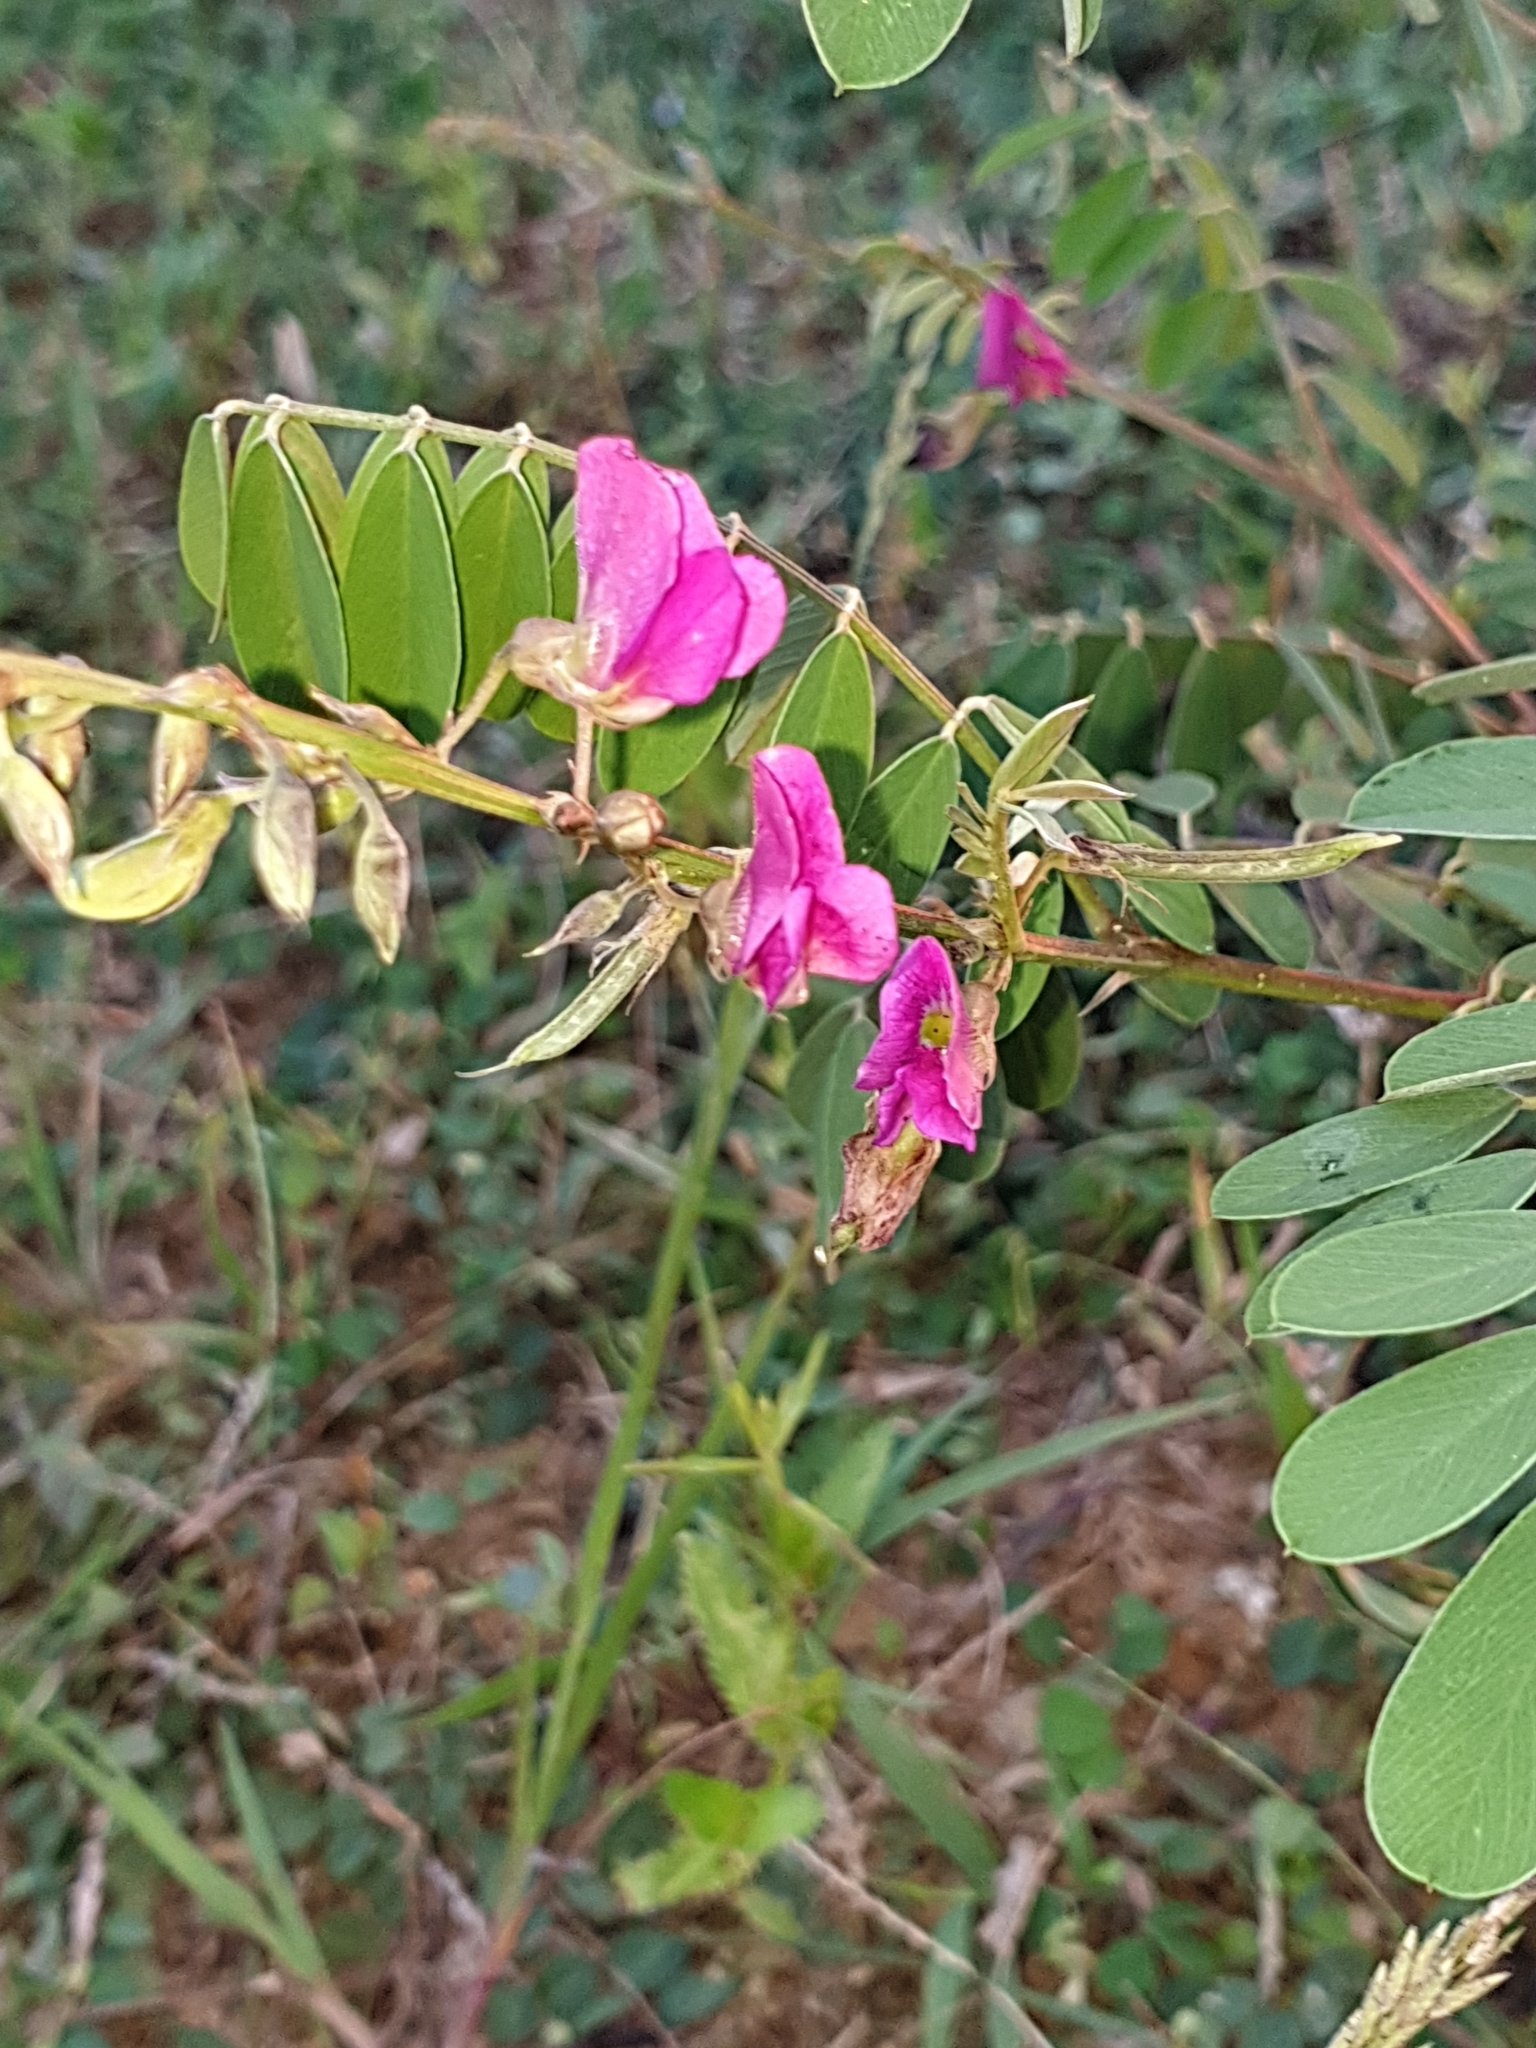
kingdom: Plantae
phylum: Tracheophyta
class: Magnoliopsida
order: Fabales
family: Fabaceae
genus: Tephrosia
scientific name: Tephrosia purpurea
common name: Fishpoison
